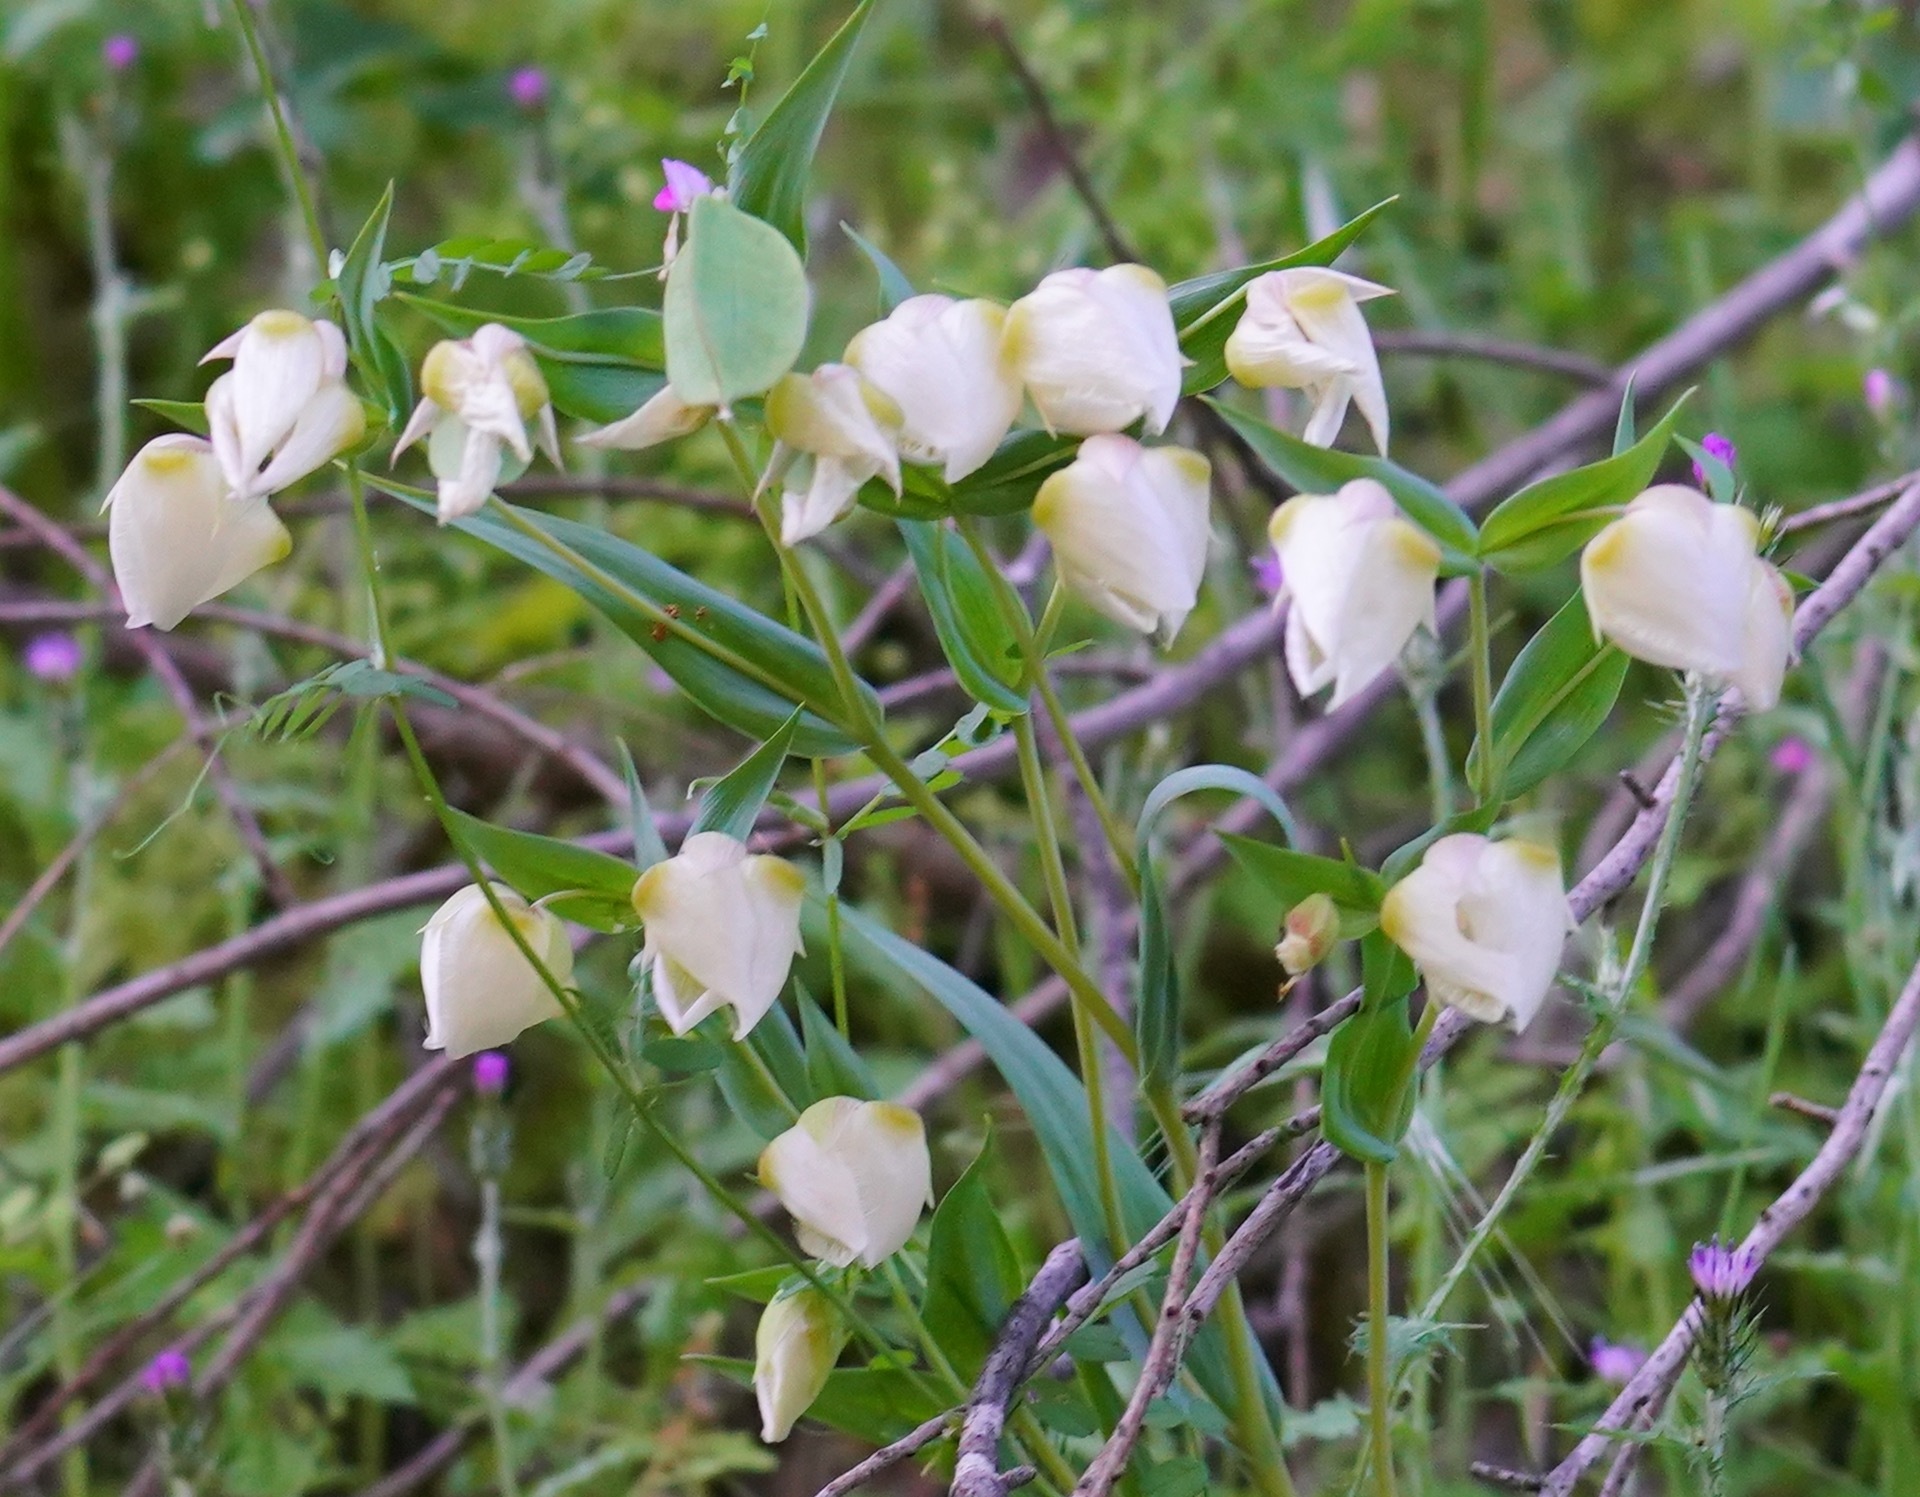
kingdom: Plantae
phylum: Tracheophyta
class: Liliopsida
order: Liliales
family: Liliaceae
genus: Calochortus
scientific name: Calochortus albus
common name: Fairy-lantern
